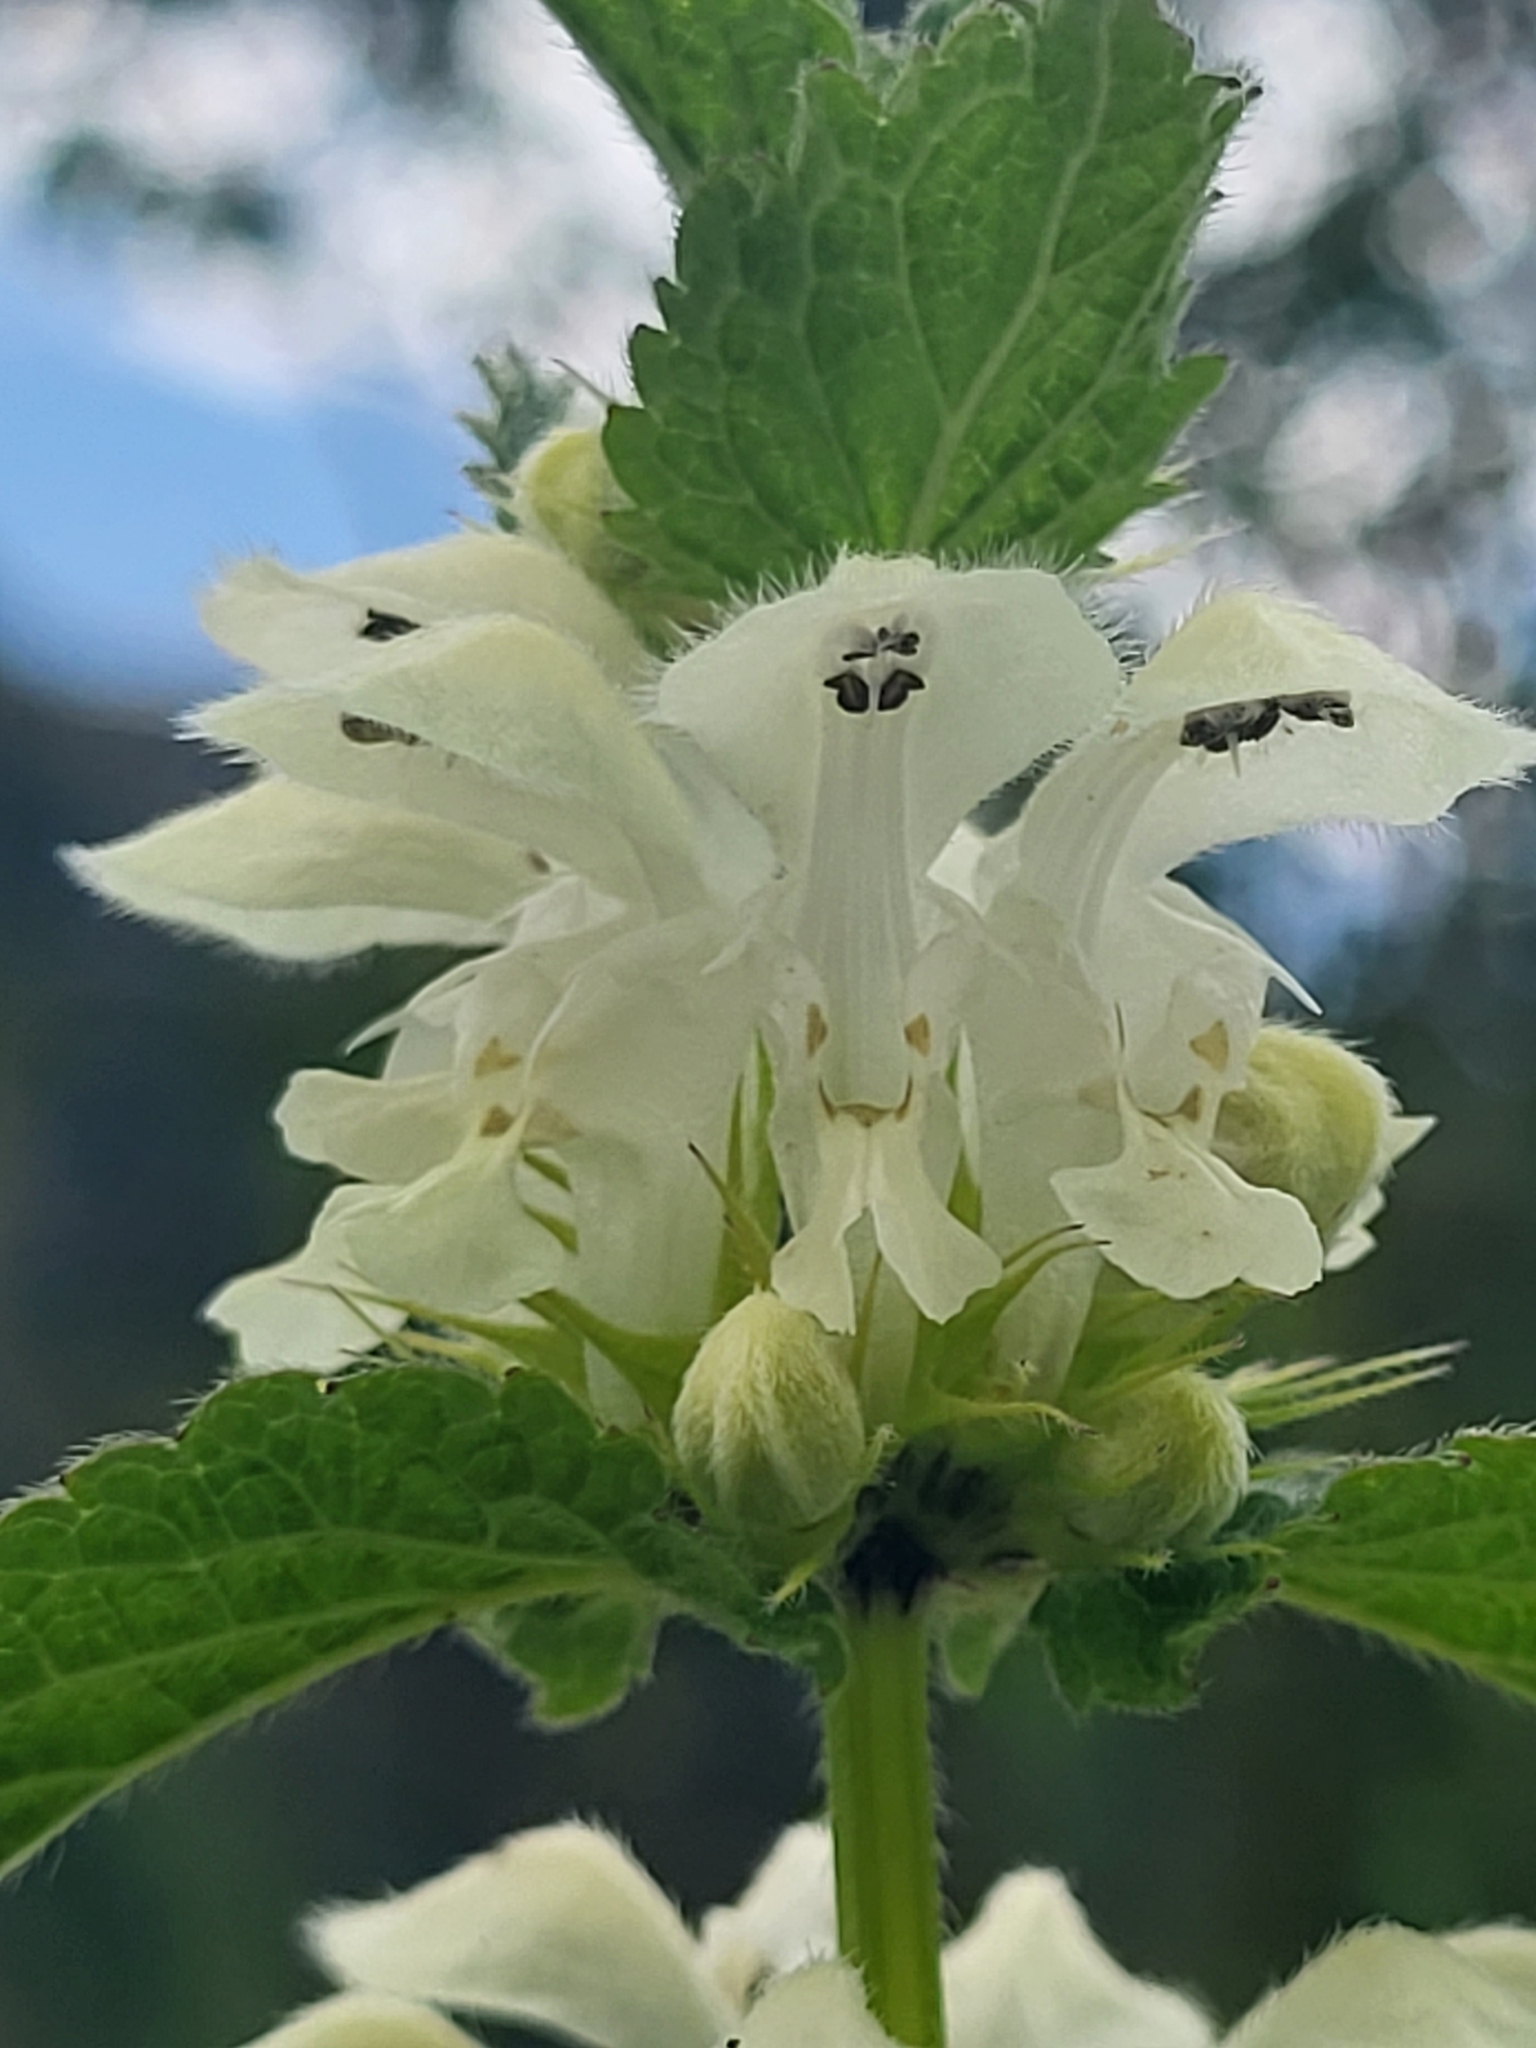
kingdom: Plantae
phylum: Tracheophyta
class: Magnoliopsida
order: Lamiales
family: Lamiaceae
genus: Lamium
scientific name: Lamium album
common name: White dead-nettle
